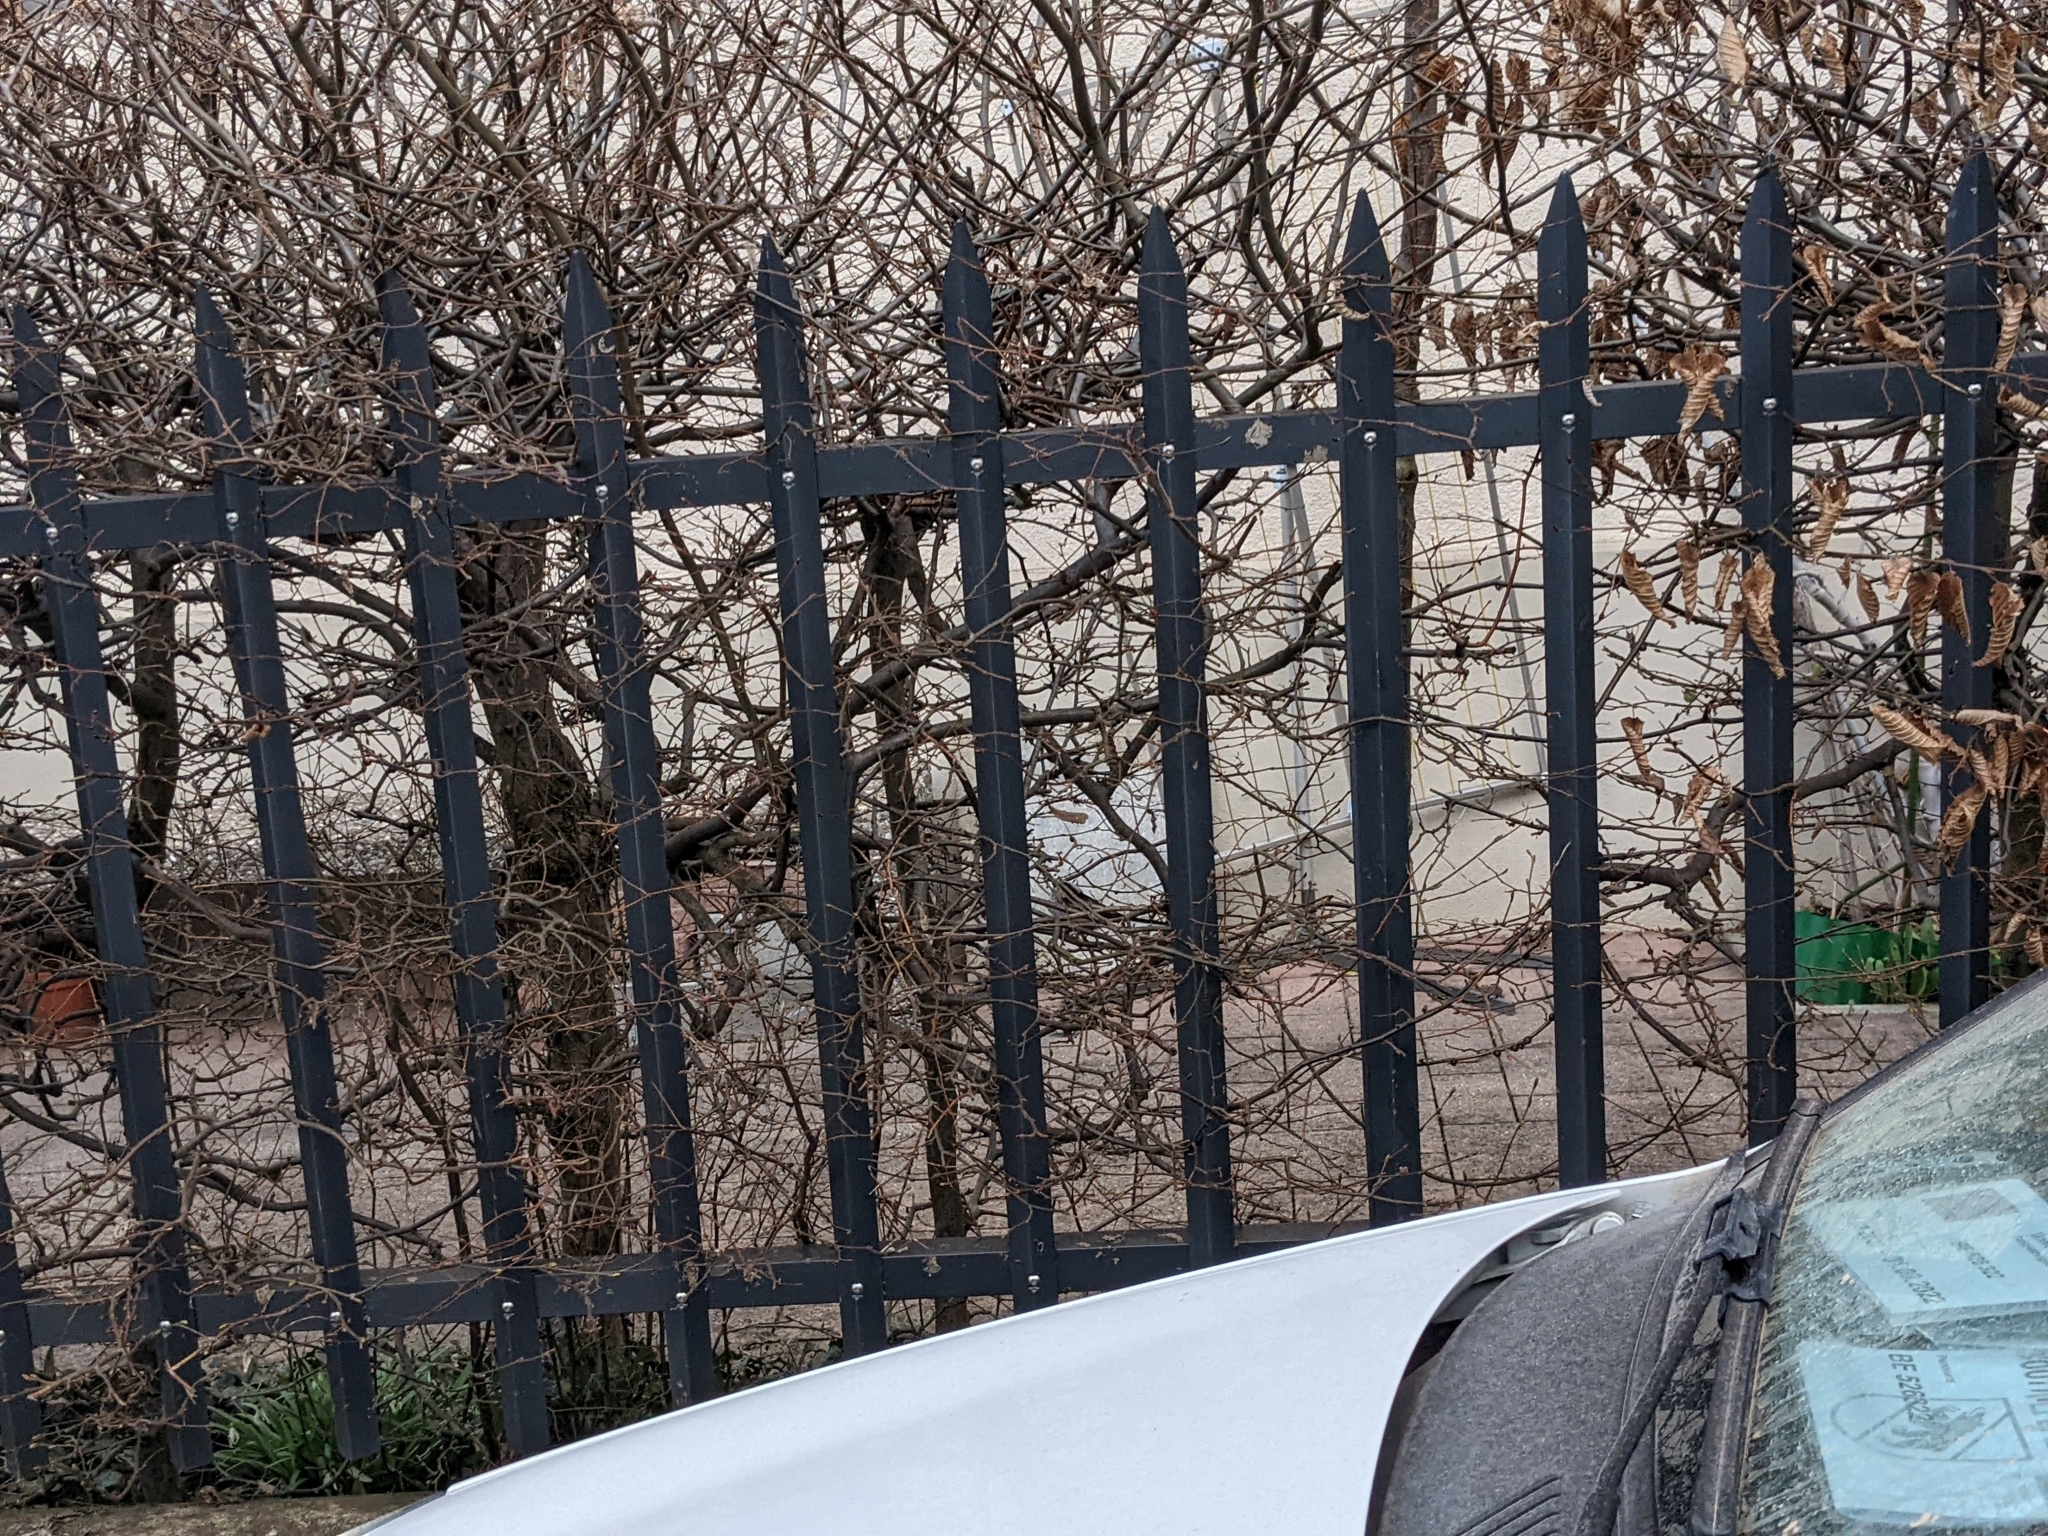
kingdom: Animalia
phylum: Chordata
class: Aves
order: Passeriformes
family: Aegithalidae
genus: Aegithalos
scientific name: Aegithalos caudatus
